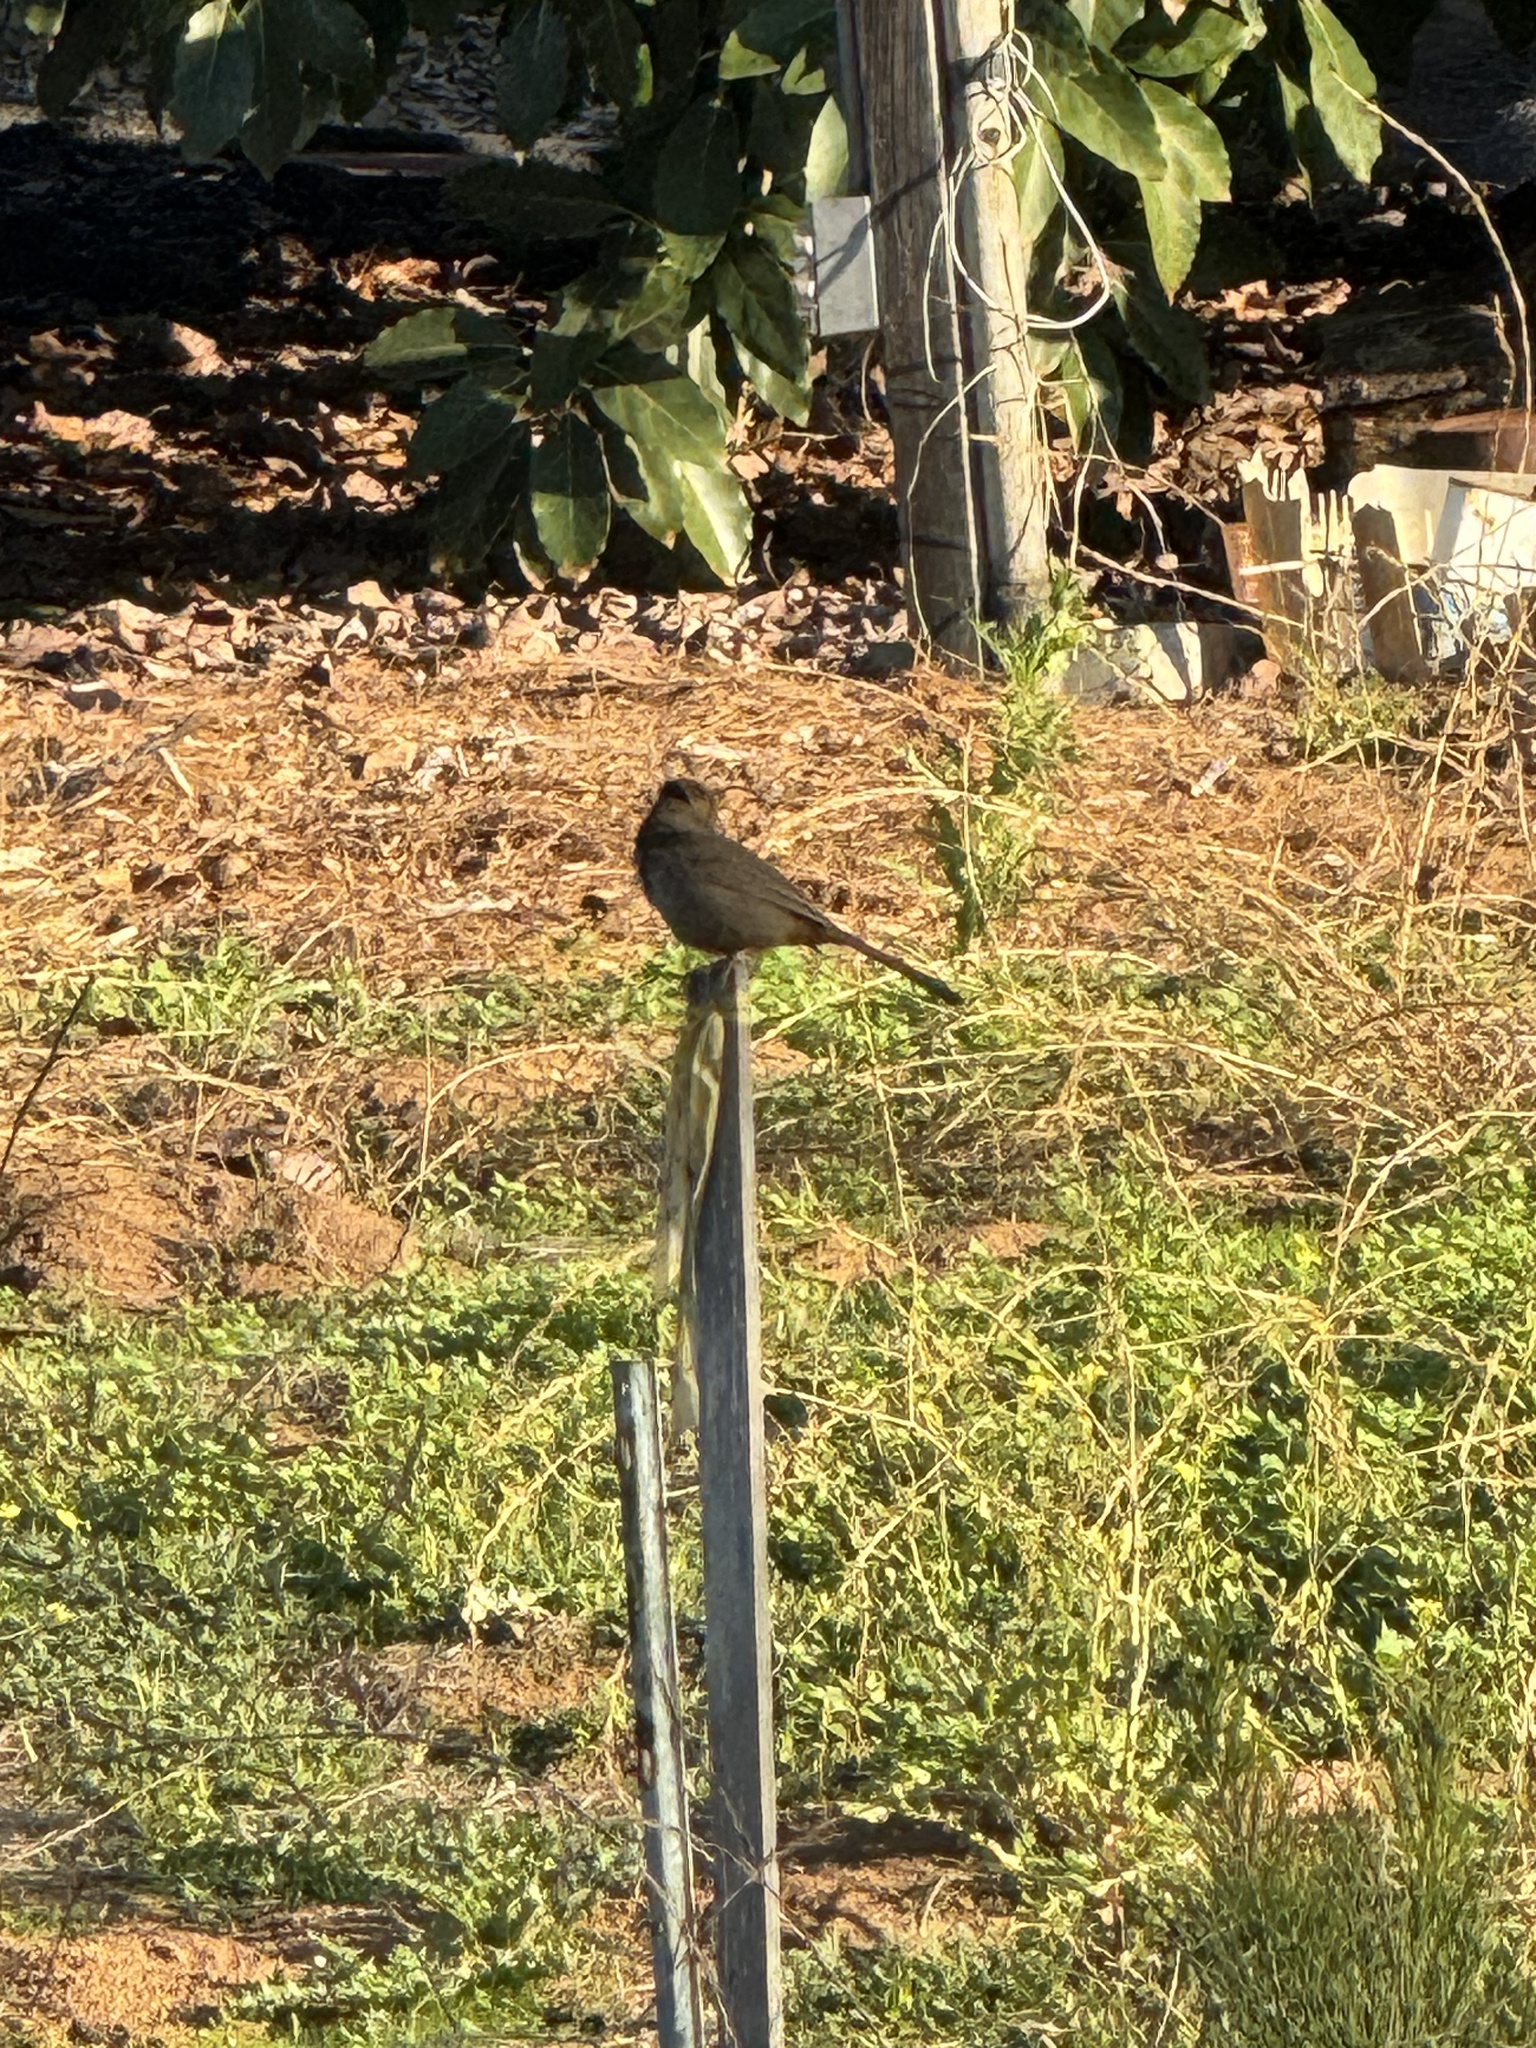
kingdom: Animalia
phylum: Chordata
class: Aves
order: Passeriformes
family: Passerellidae
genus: Melozone
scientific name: Melozone crissalis
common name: California towhee
